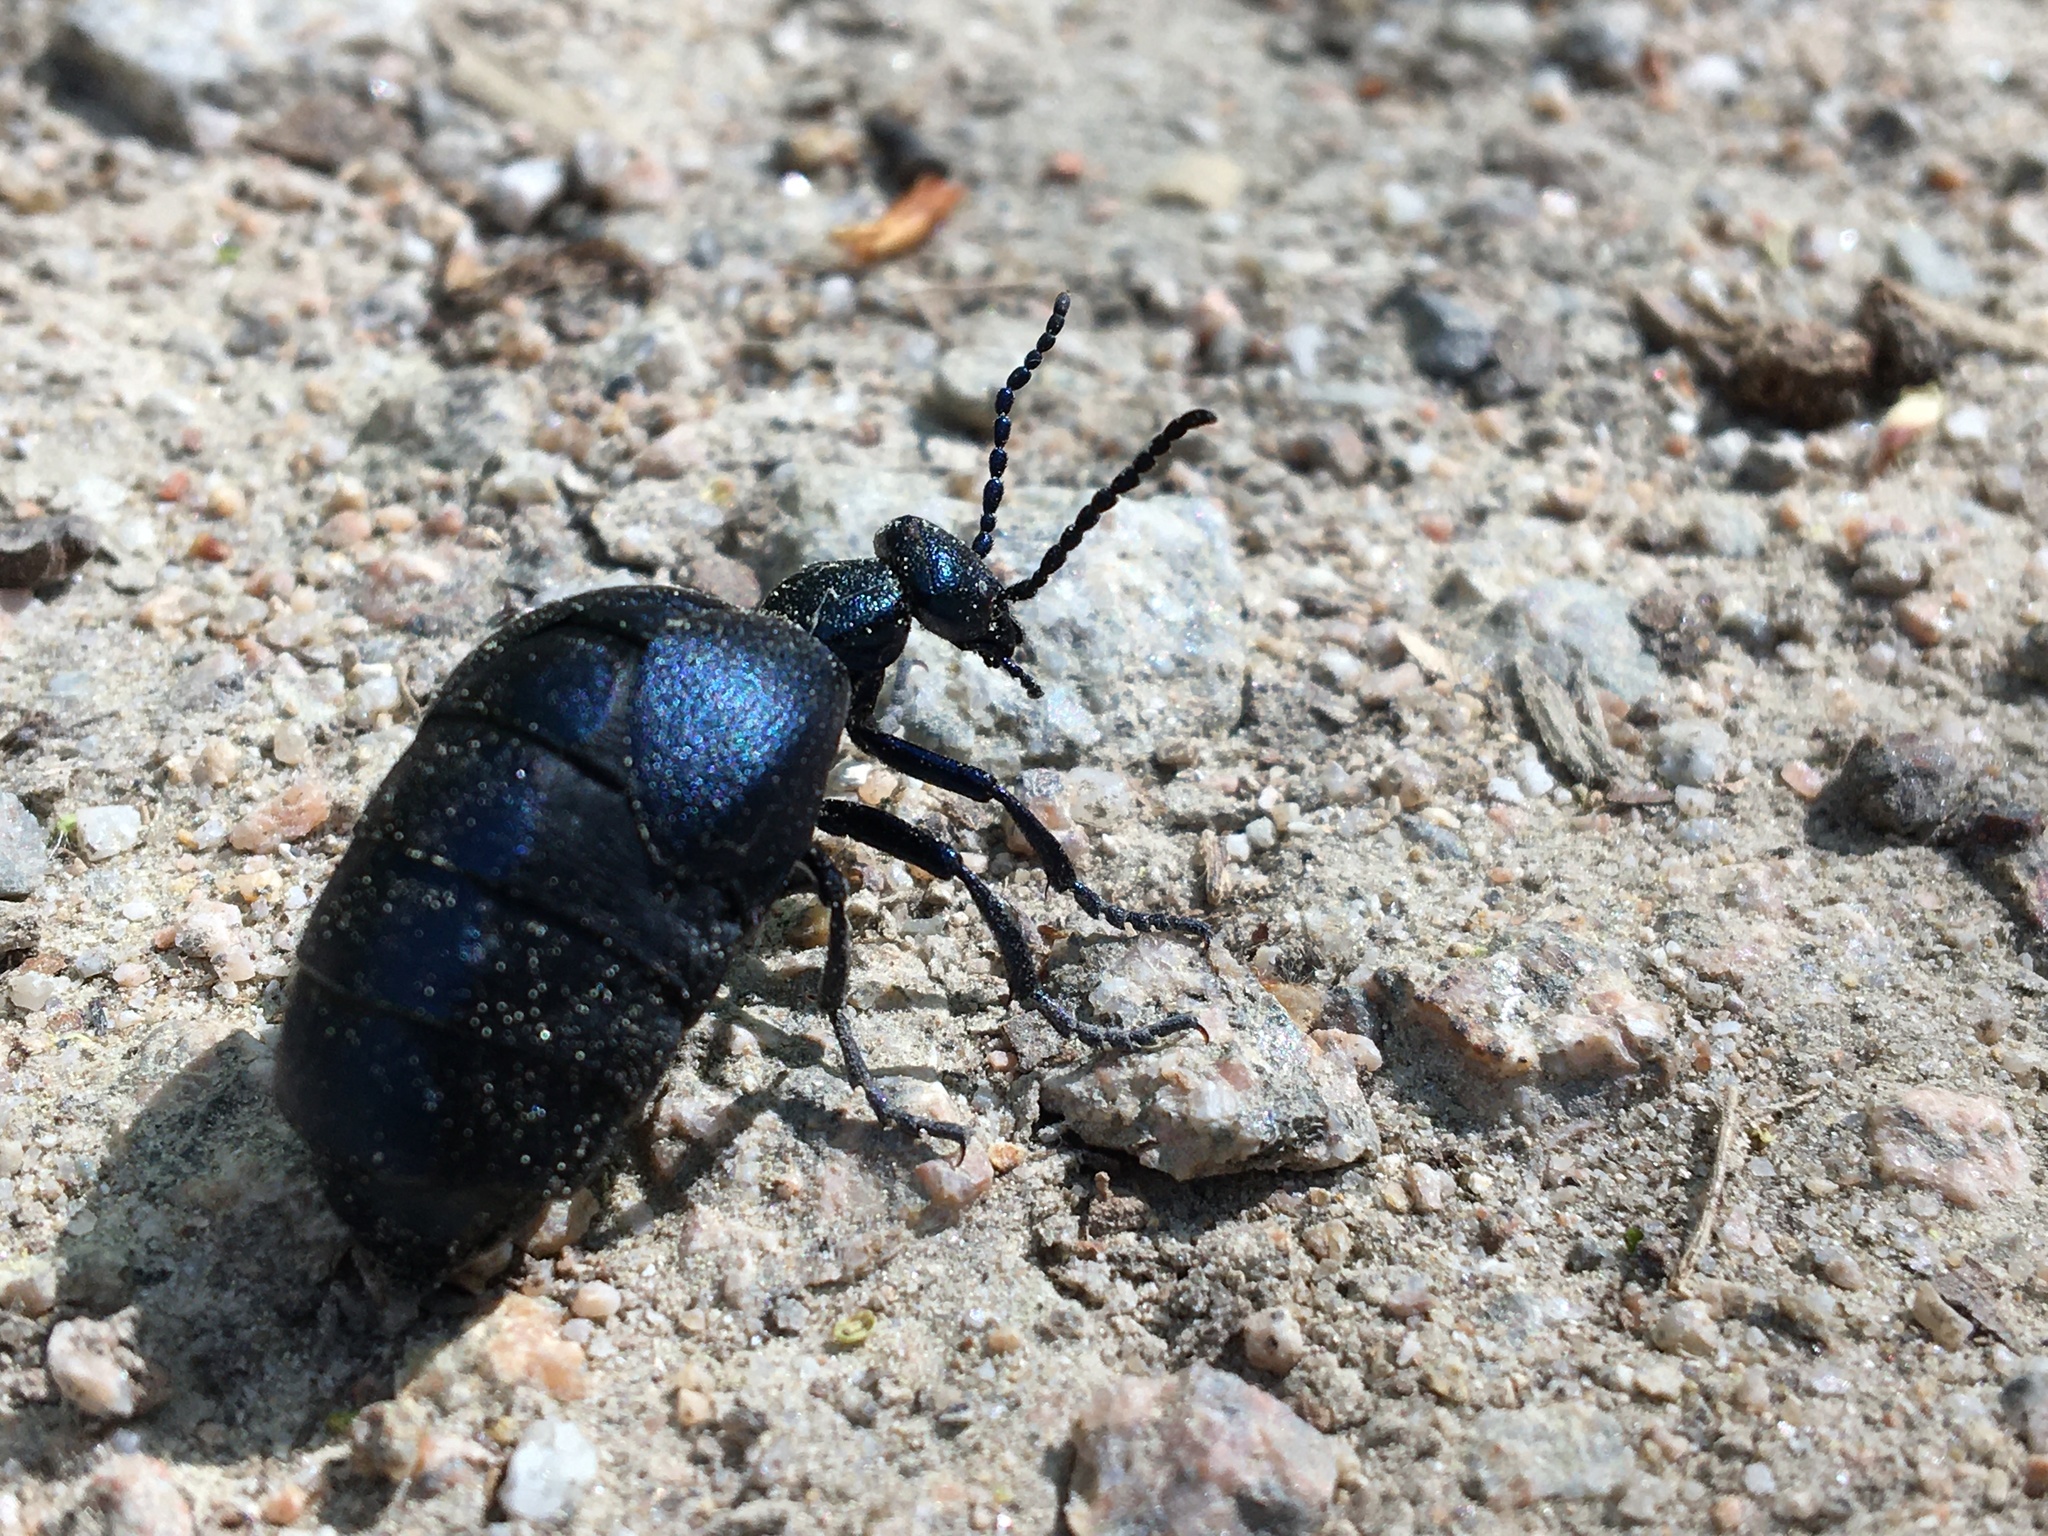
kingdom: Animalia
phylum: Arthropoda
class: Insecta
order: Coleoptera
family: Meloidae
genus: Meloe
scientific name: Meloe violaceus
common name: Violet oil-beetle
